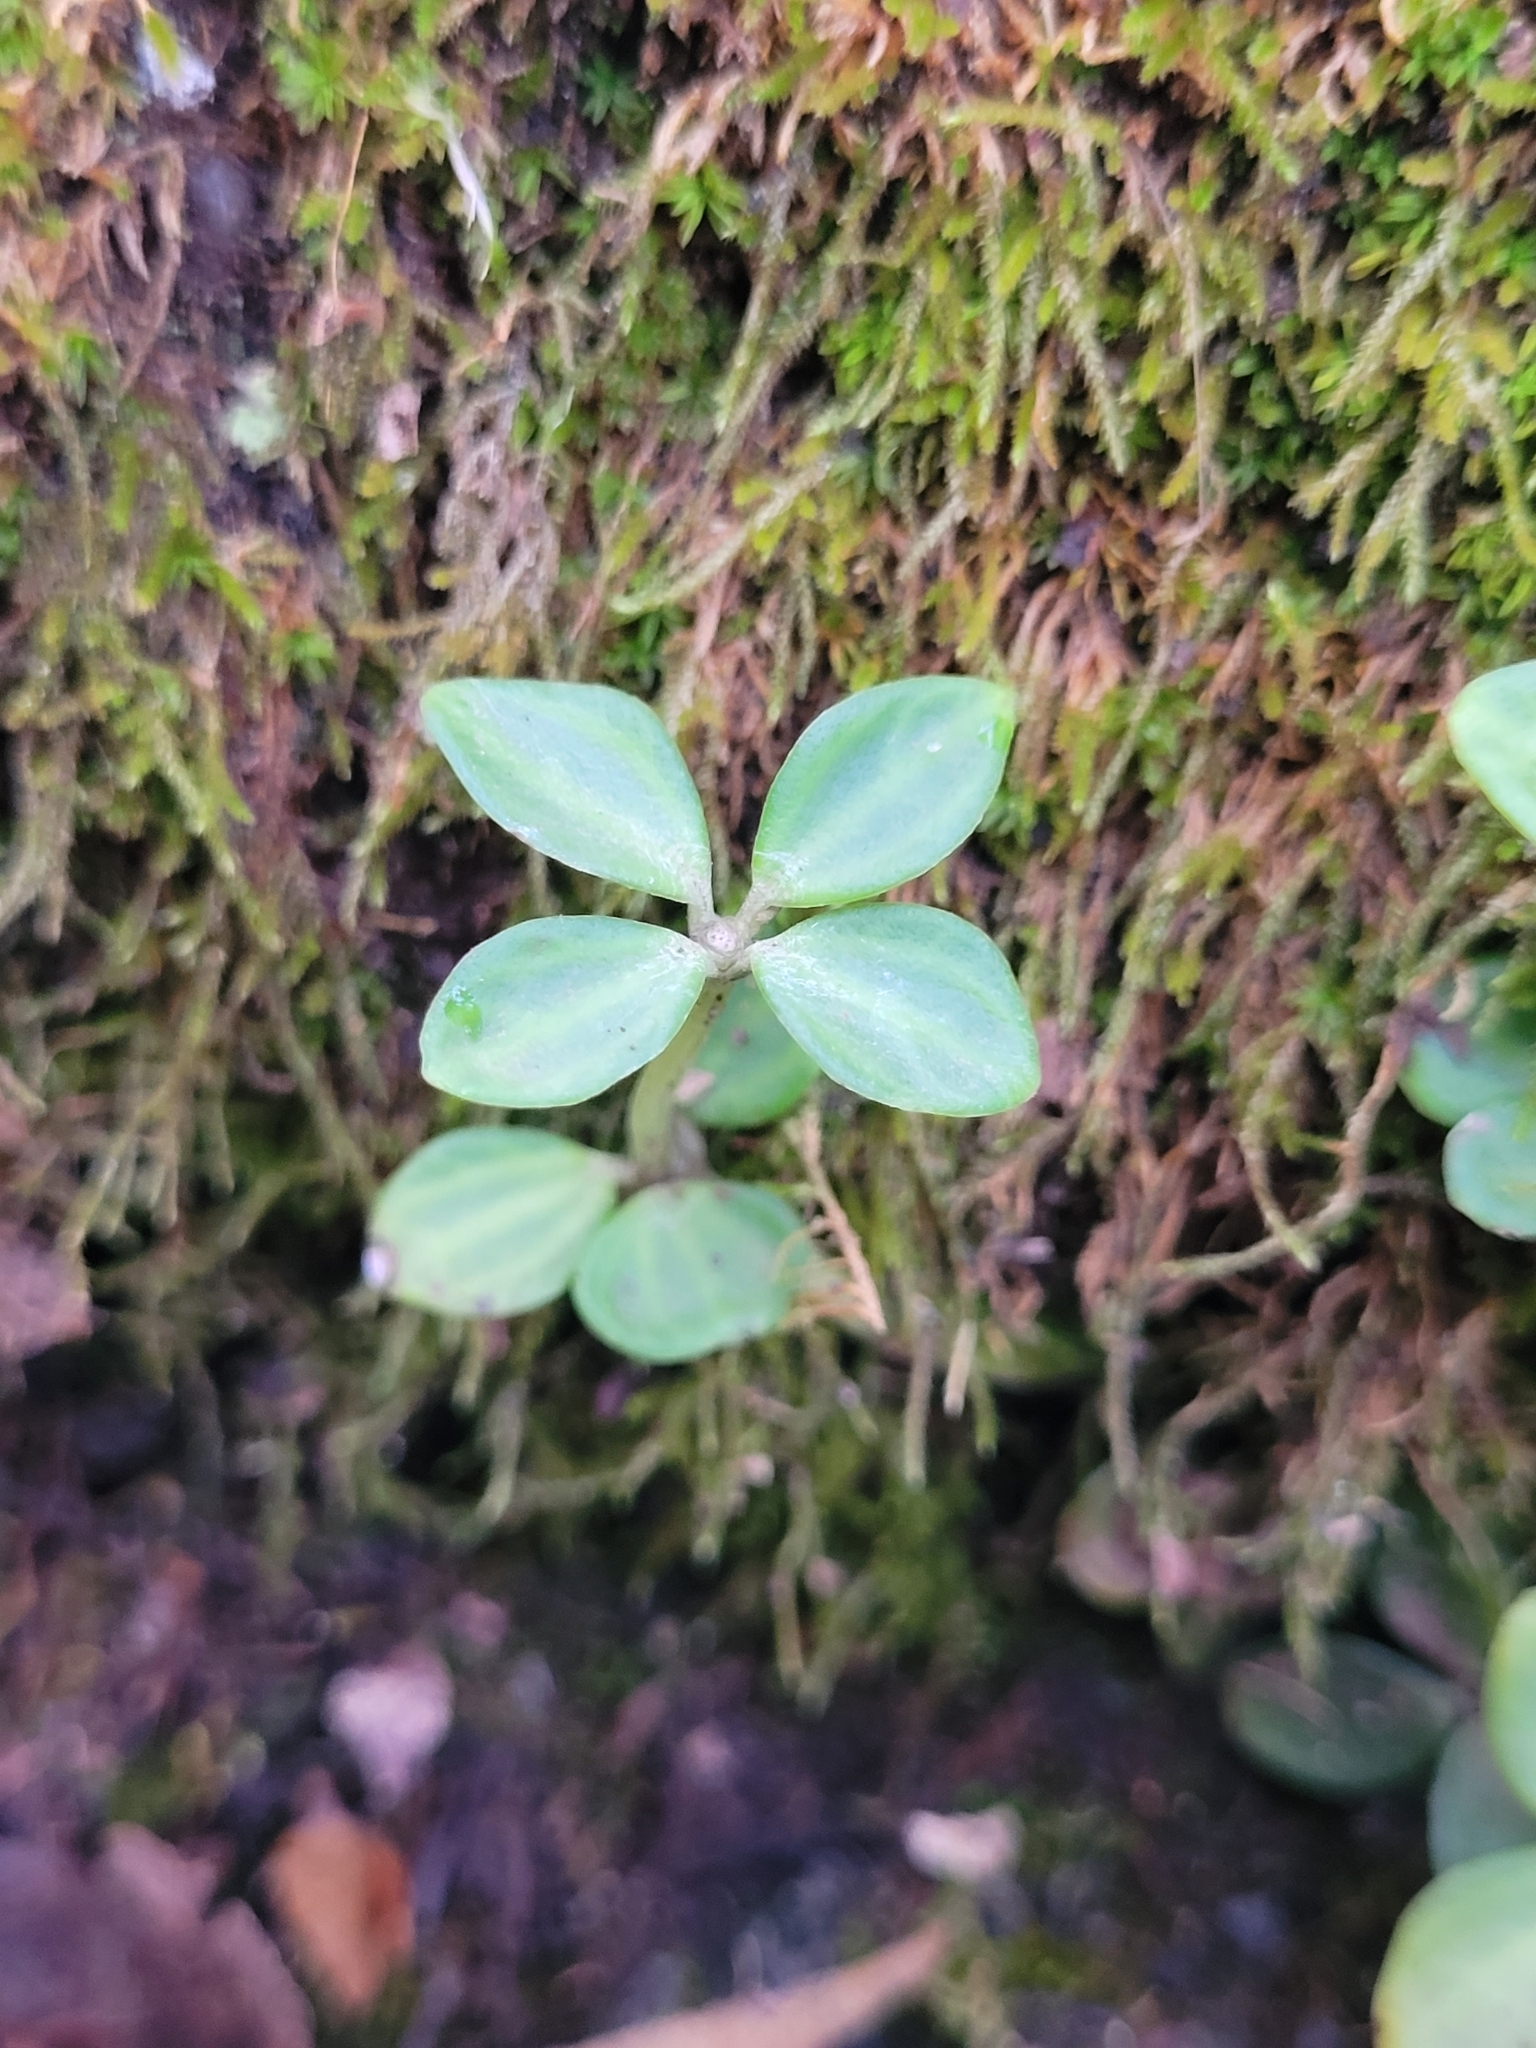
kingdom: Plantae
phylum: Tracheophyta
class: Magnoliopsida
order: Piperales
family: Piperaceae
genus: Peperomia
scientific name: Peperomia tetraphylla
